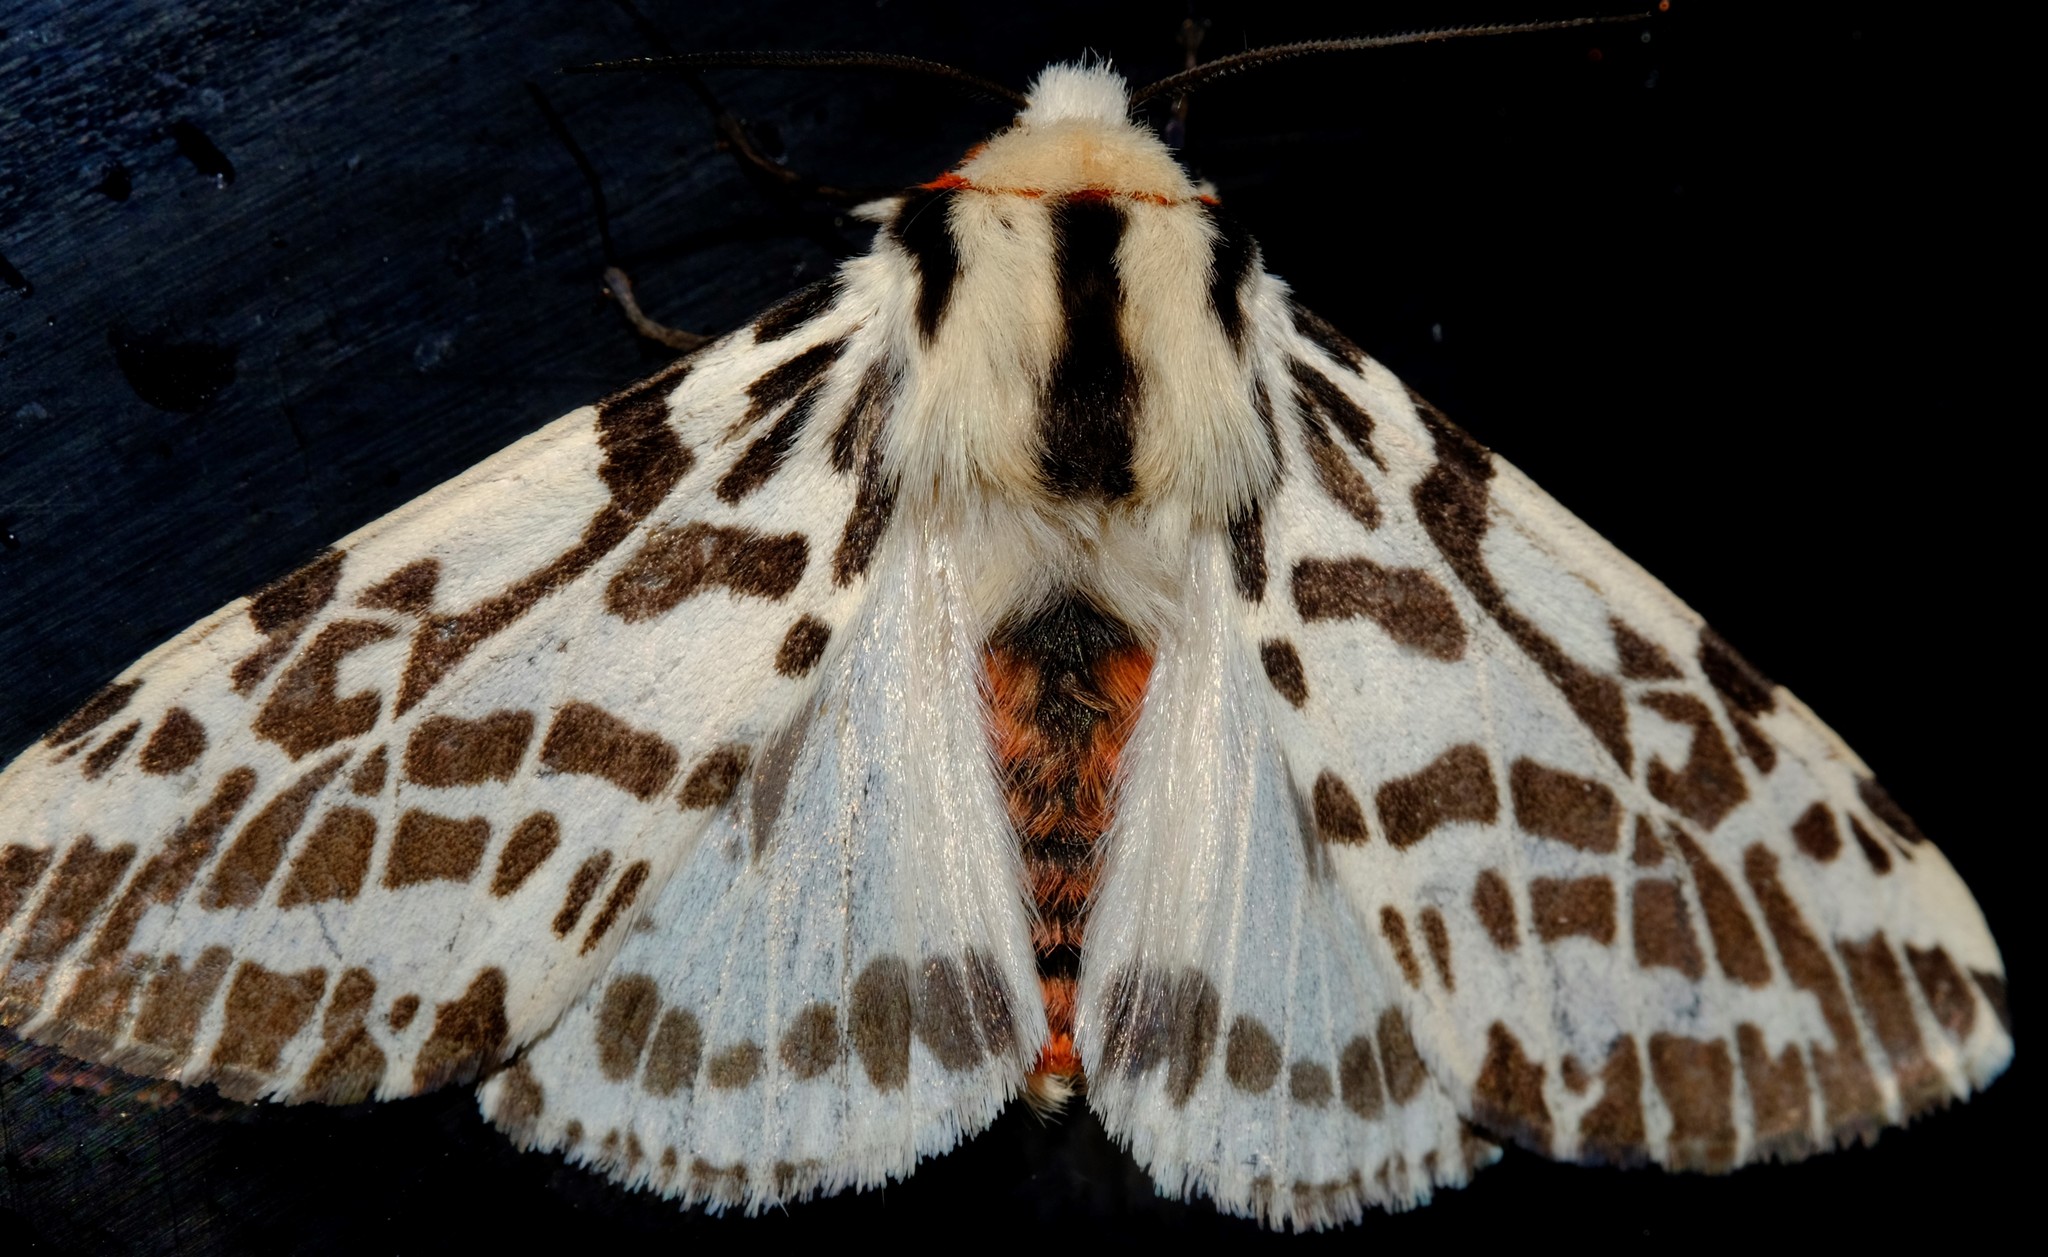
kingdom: Animalia
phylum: Arthropoda
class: Insecta
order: Lepidoptera
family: Erebidae
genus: Ardices
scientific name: Ardices glatignyi
